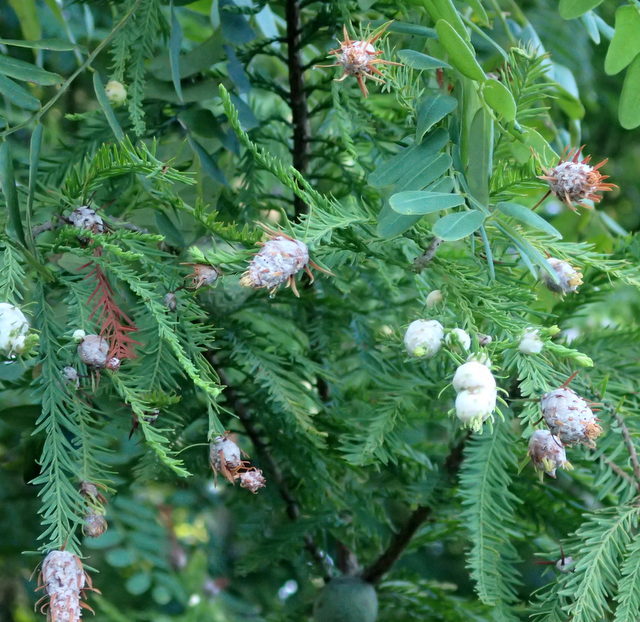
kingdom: Animalia
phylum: Arthropoda
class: Insecta
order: Diptera
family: Cecidomyiidae
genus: Taxodiomyia
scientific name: Taxodiomyia cupressiananassa
